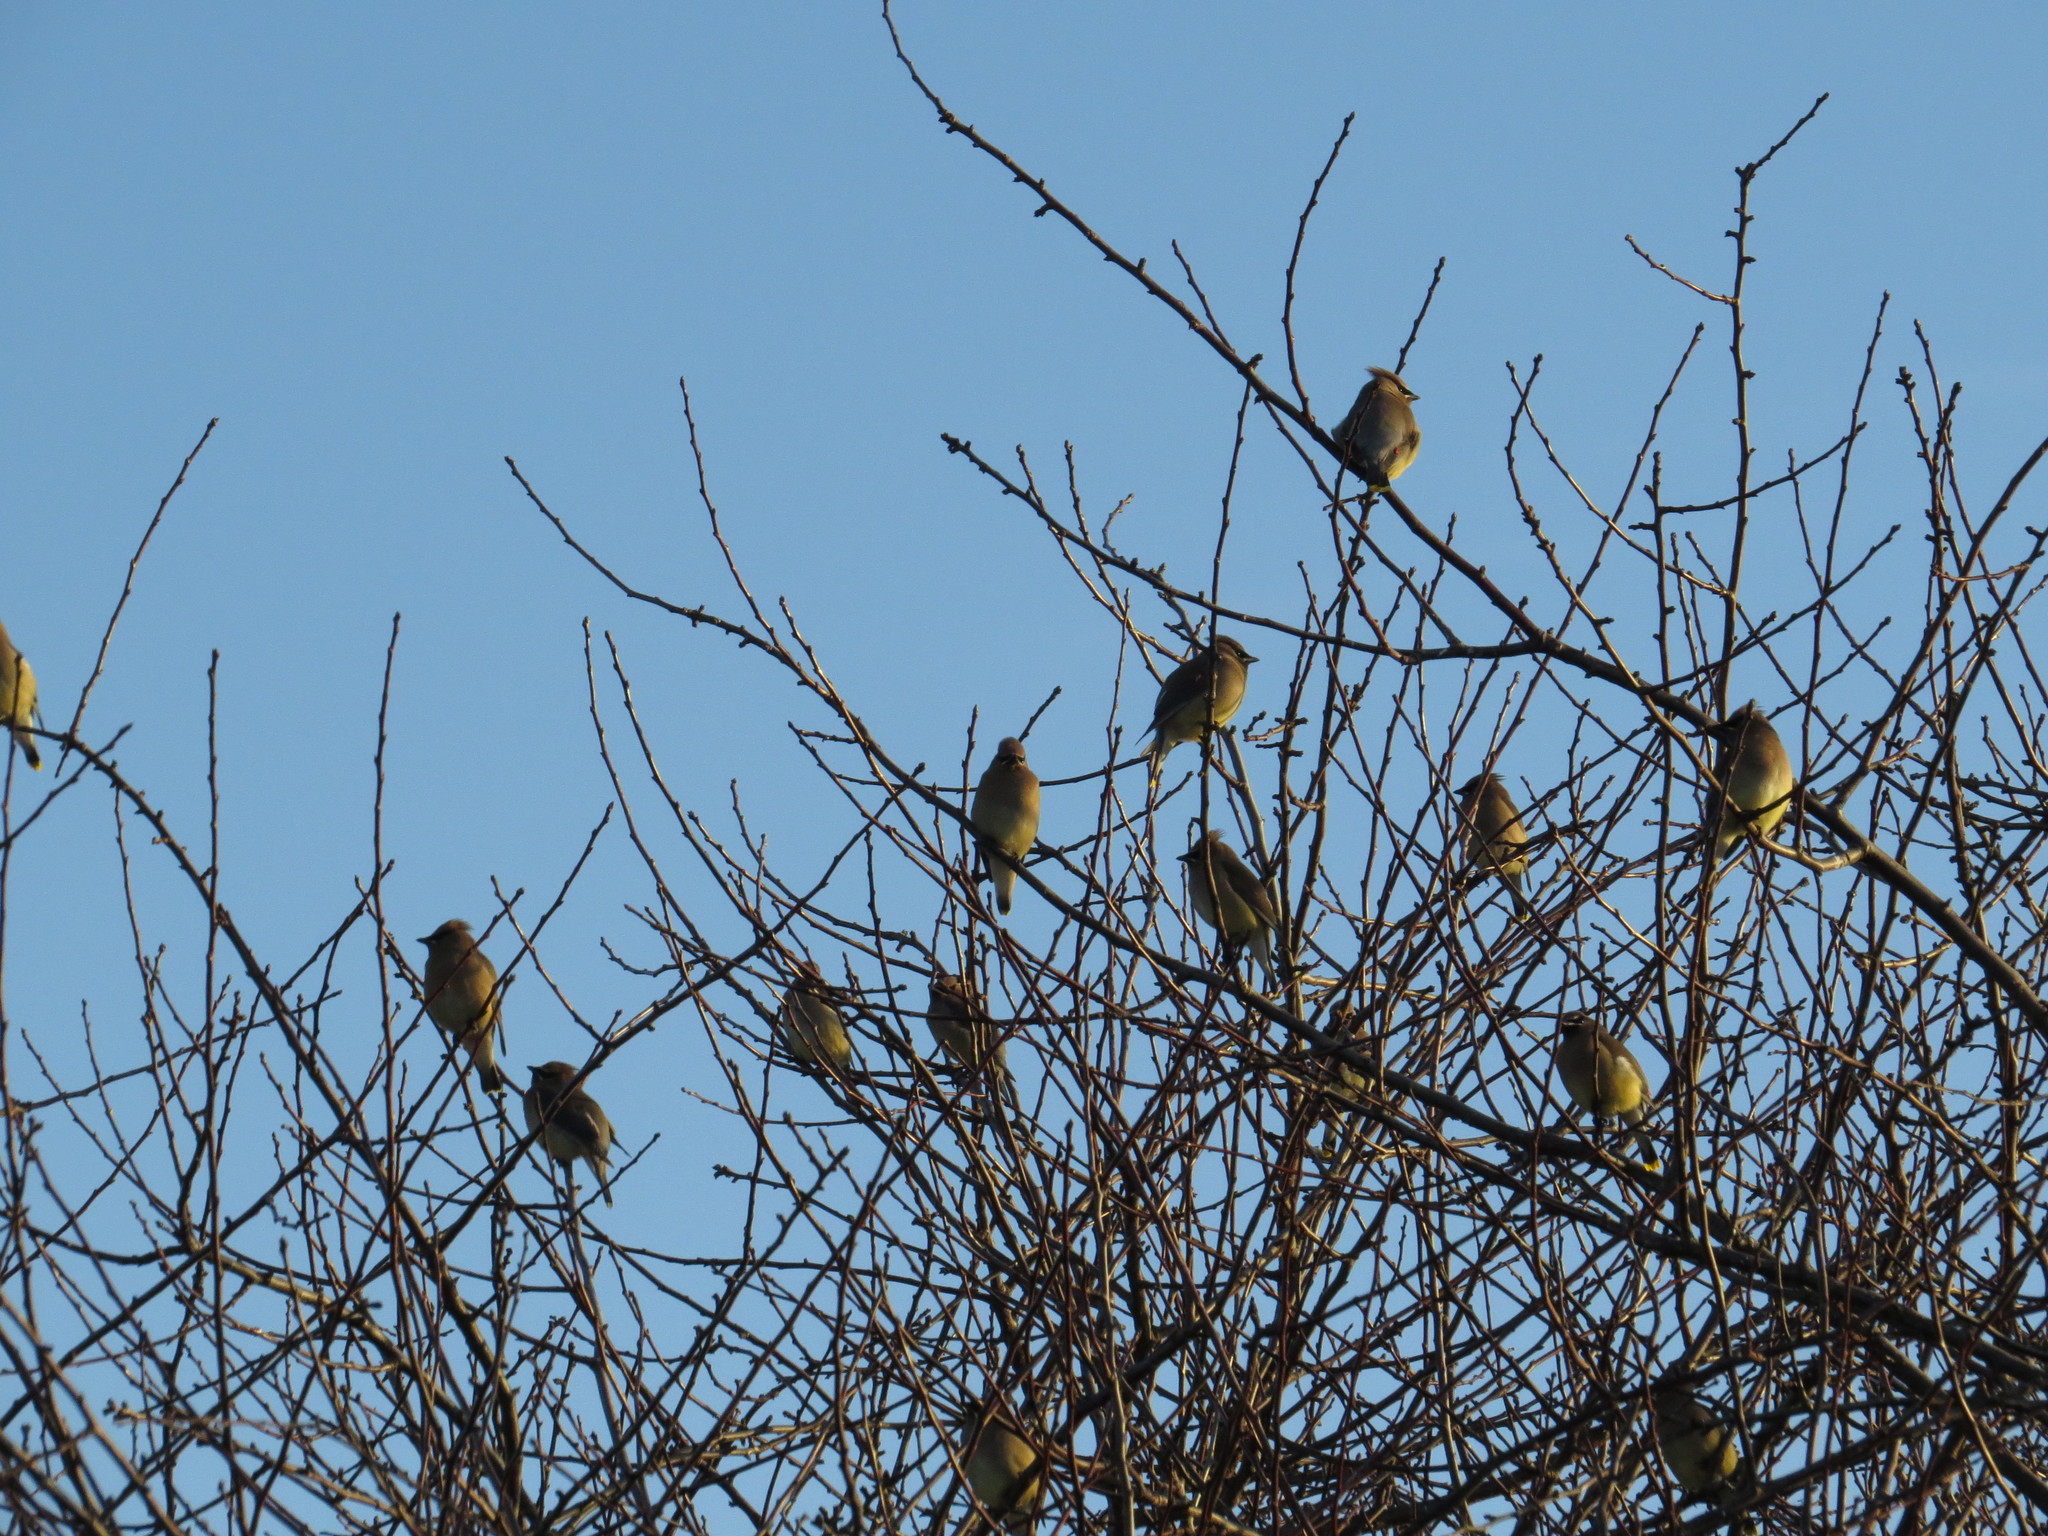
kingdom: Animalia
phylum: Chordata
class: Aves
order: Passeriformes
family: Bombycillidae
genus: Bombycilla
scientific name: Bombycilla cedrorum
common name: Cedar waxwing
